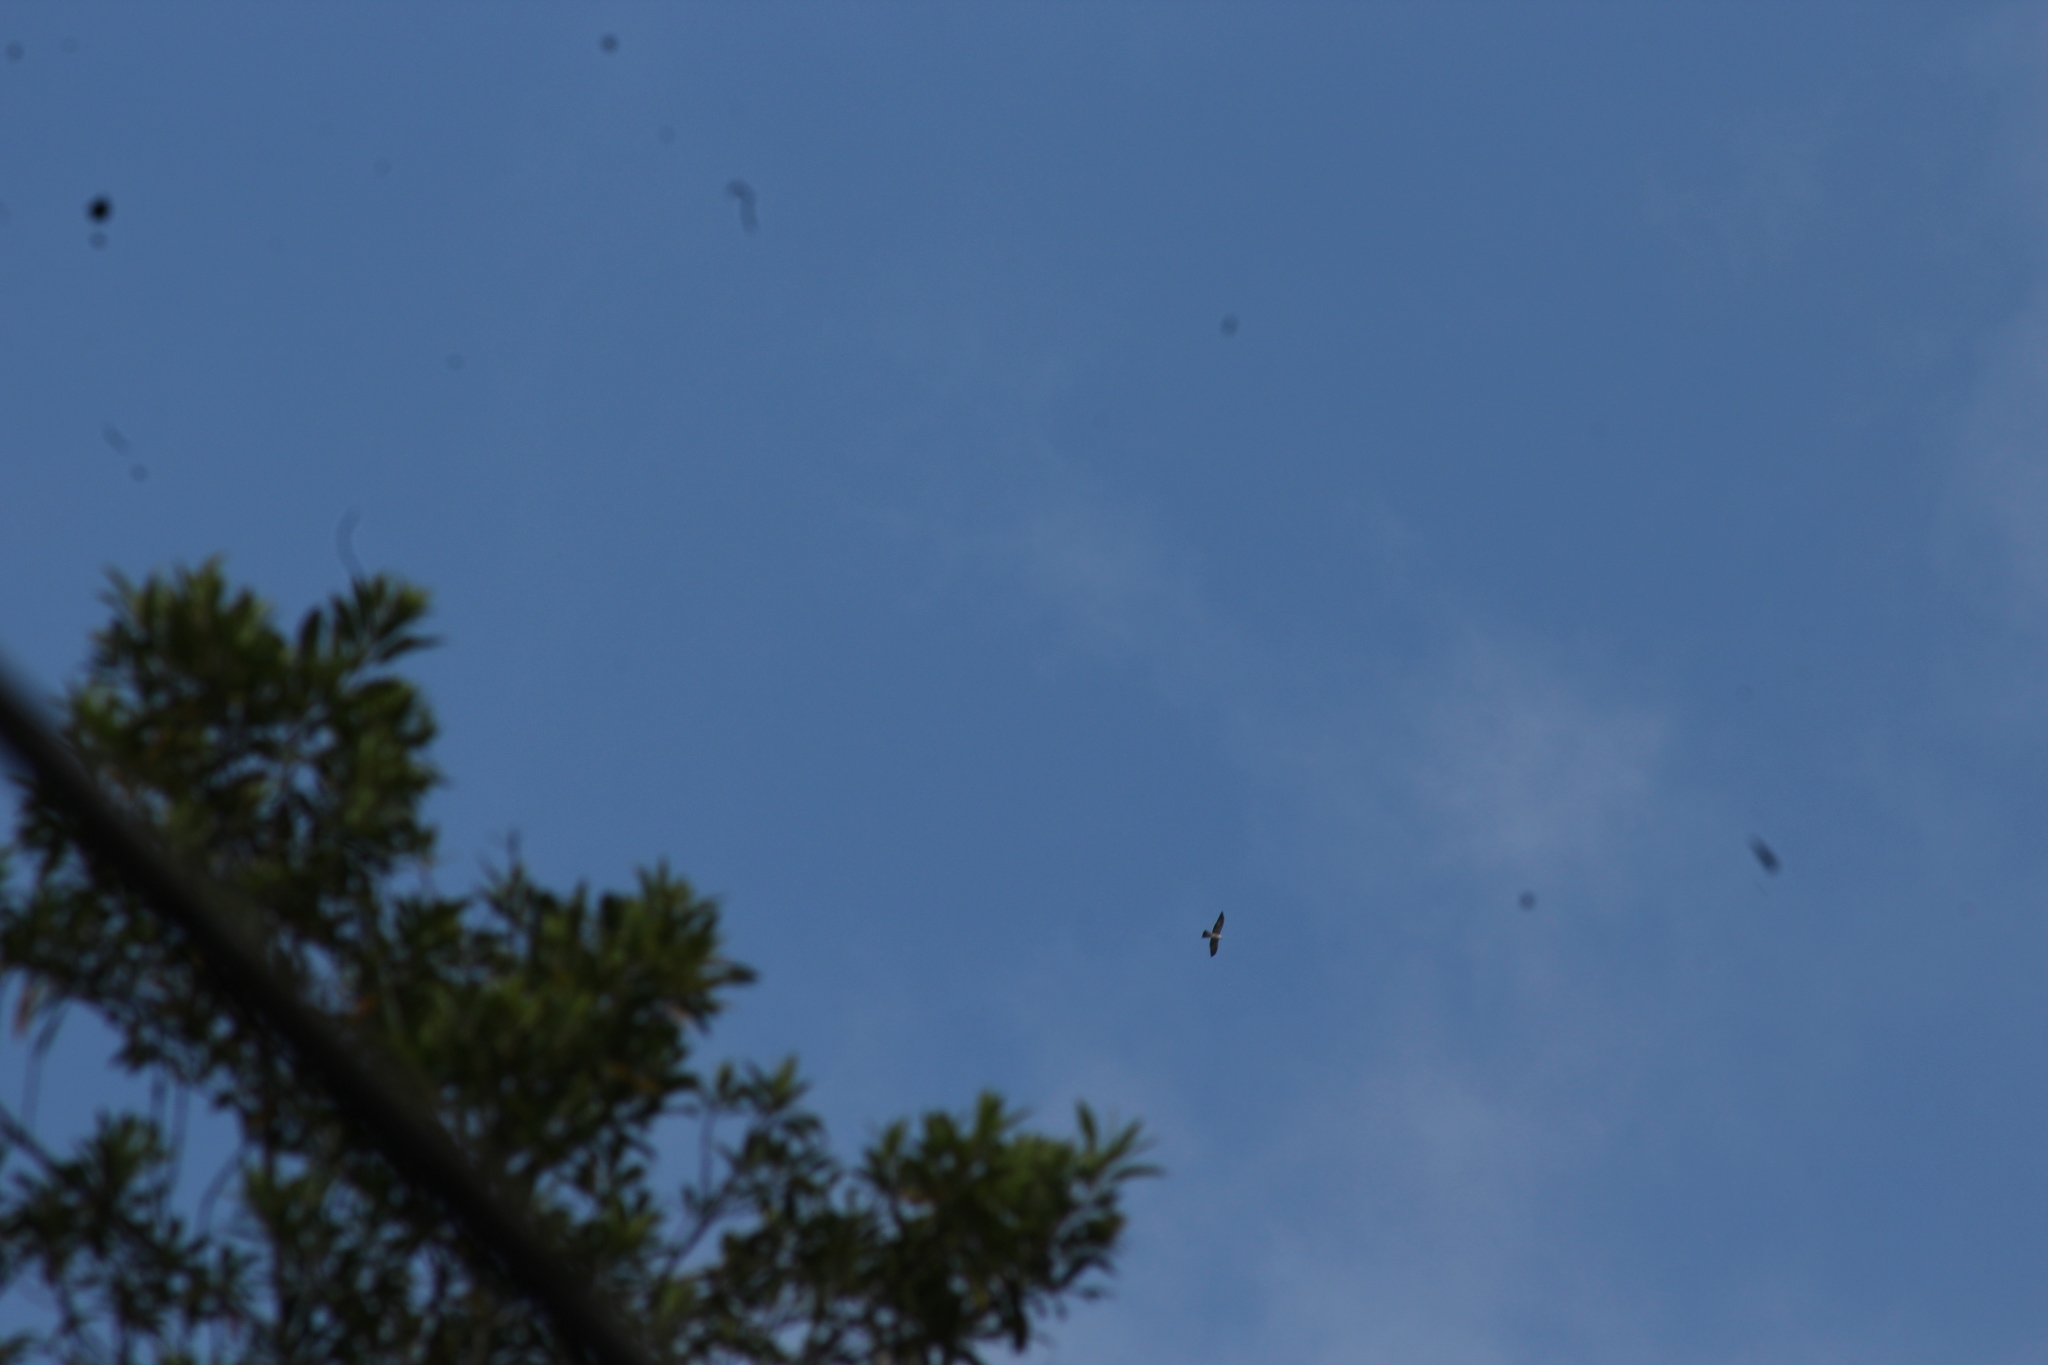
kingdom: Animalia
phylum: Chordata
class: Aves
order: Accipitriformes
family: Accipitridae
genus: Ictinia
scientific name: Ictinia mississippiensis
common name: Mississippi kite
